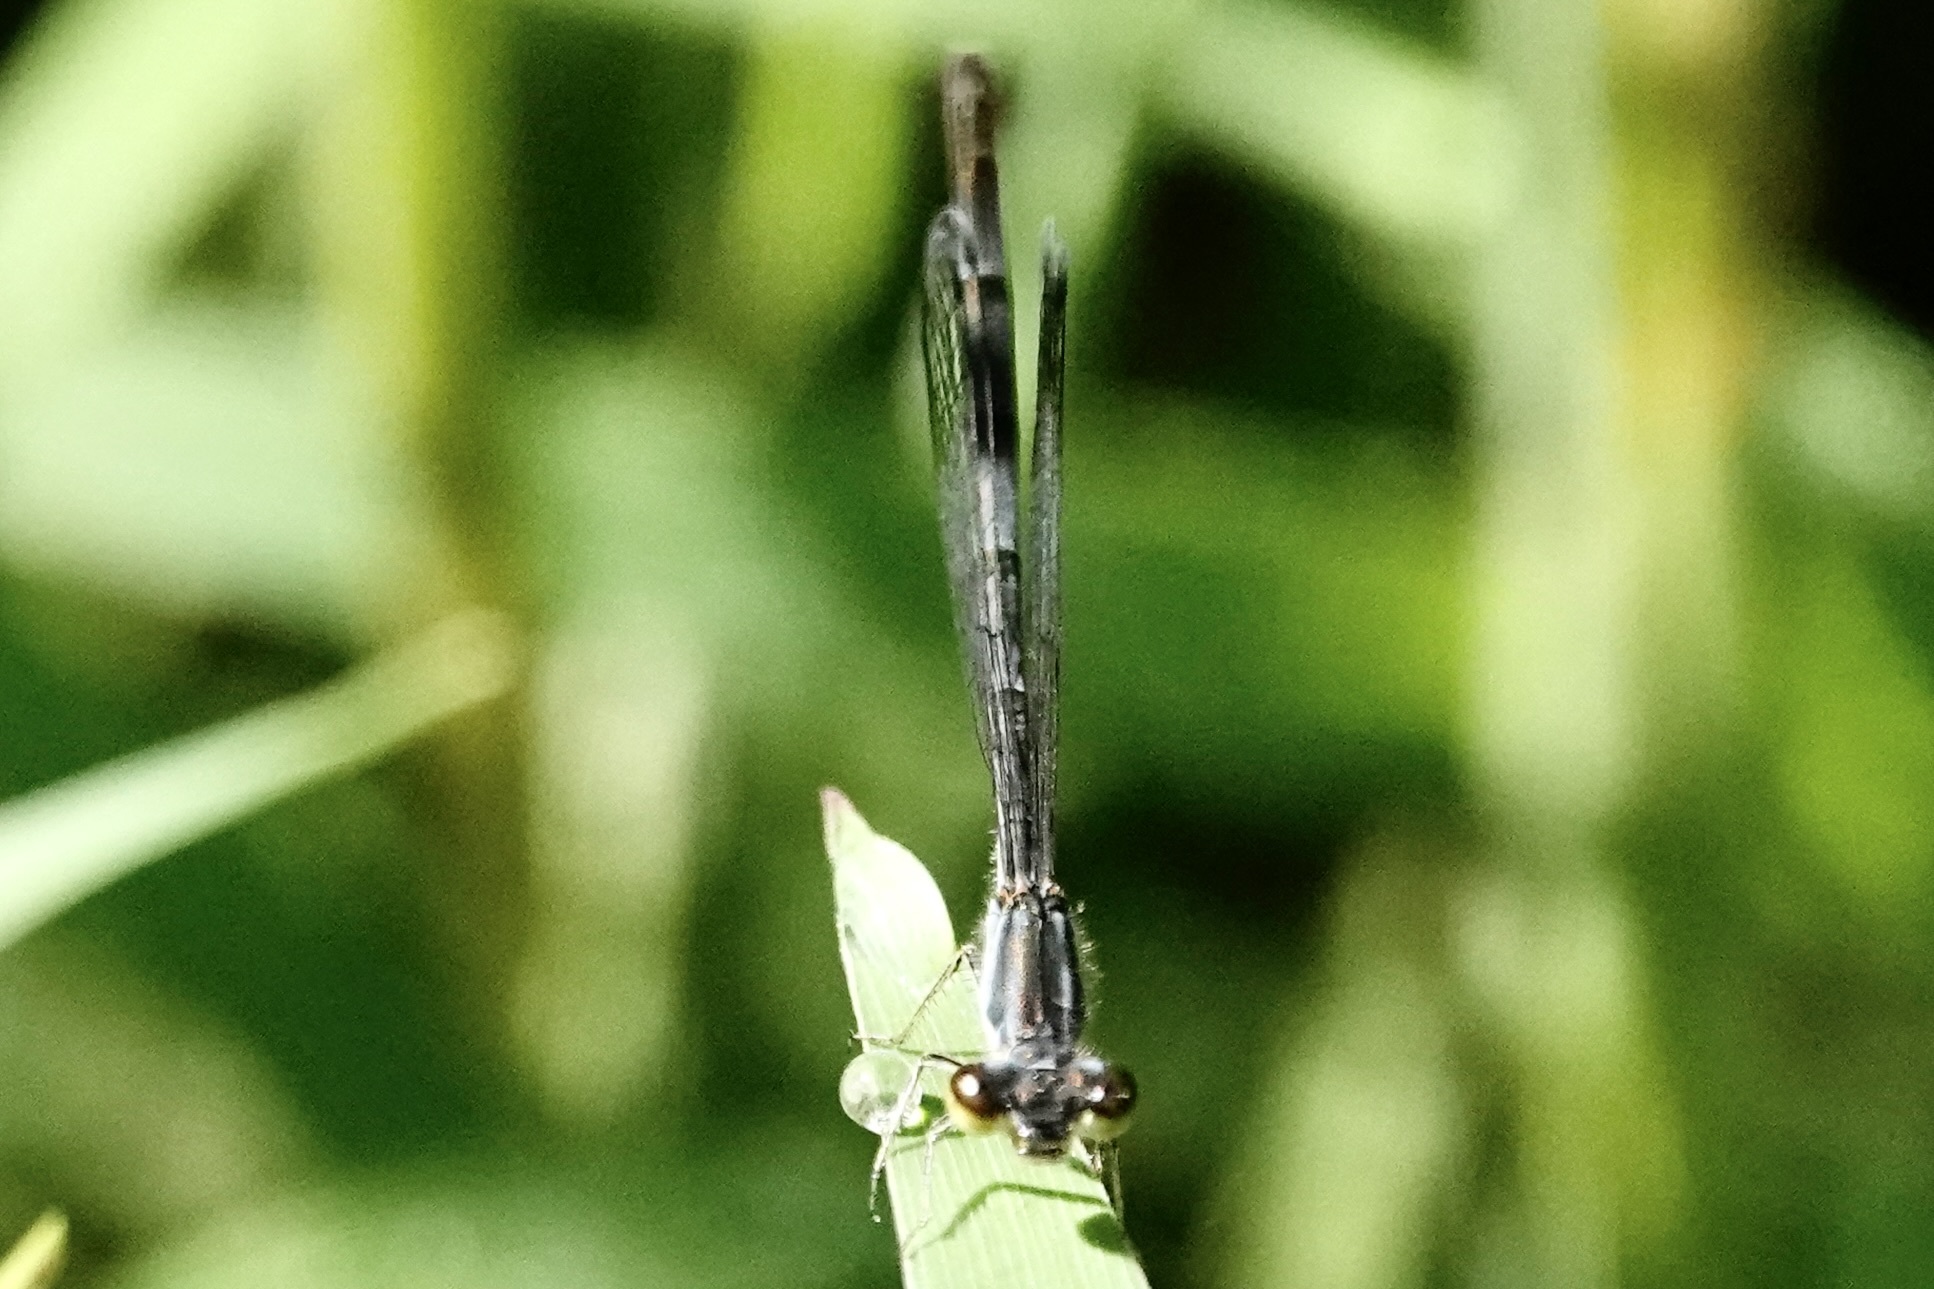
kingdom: Animalia
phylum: Arthropoda
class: Insecta
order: Odonata
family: Coenagrionidae
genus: Ischnura
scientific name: Ischnura posita
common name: Fragile forktail
